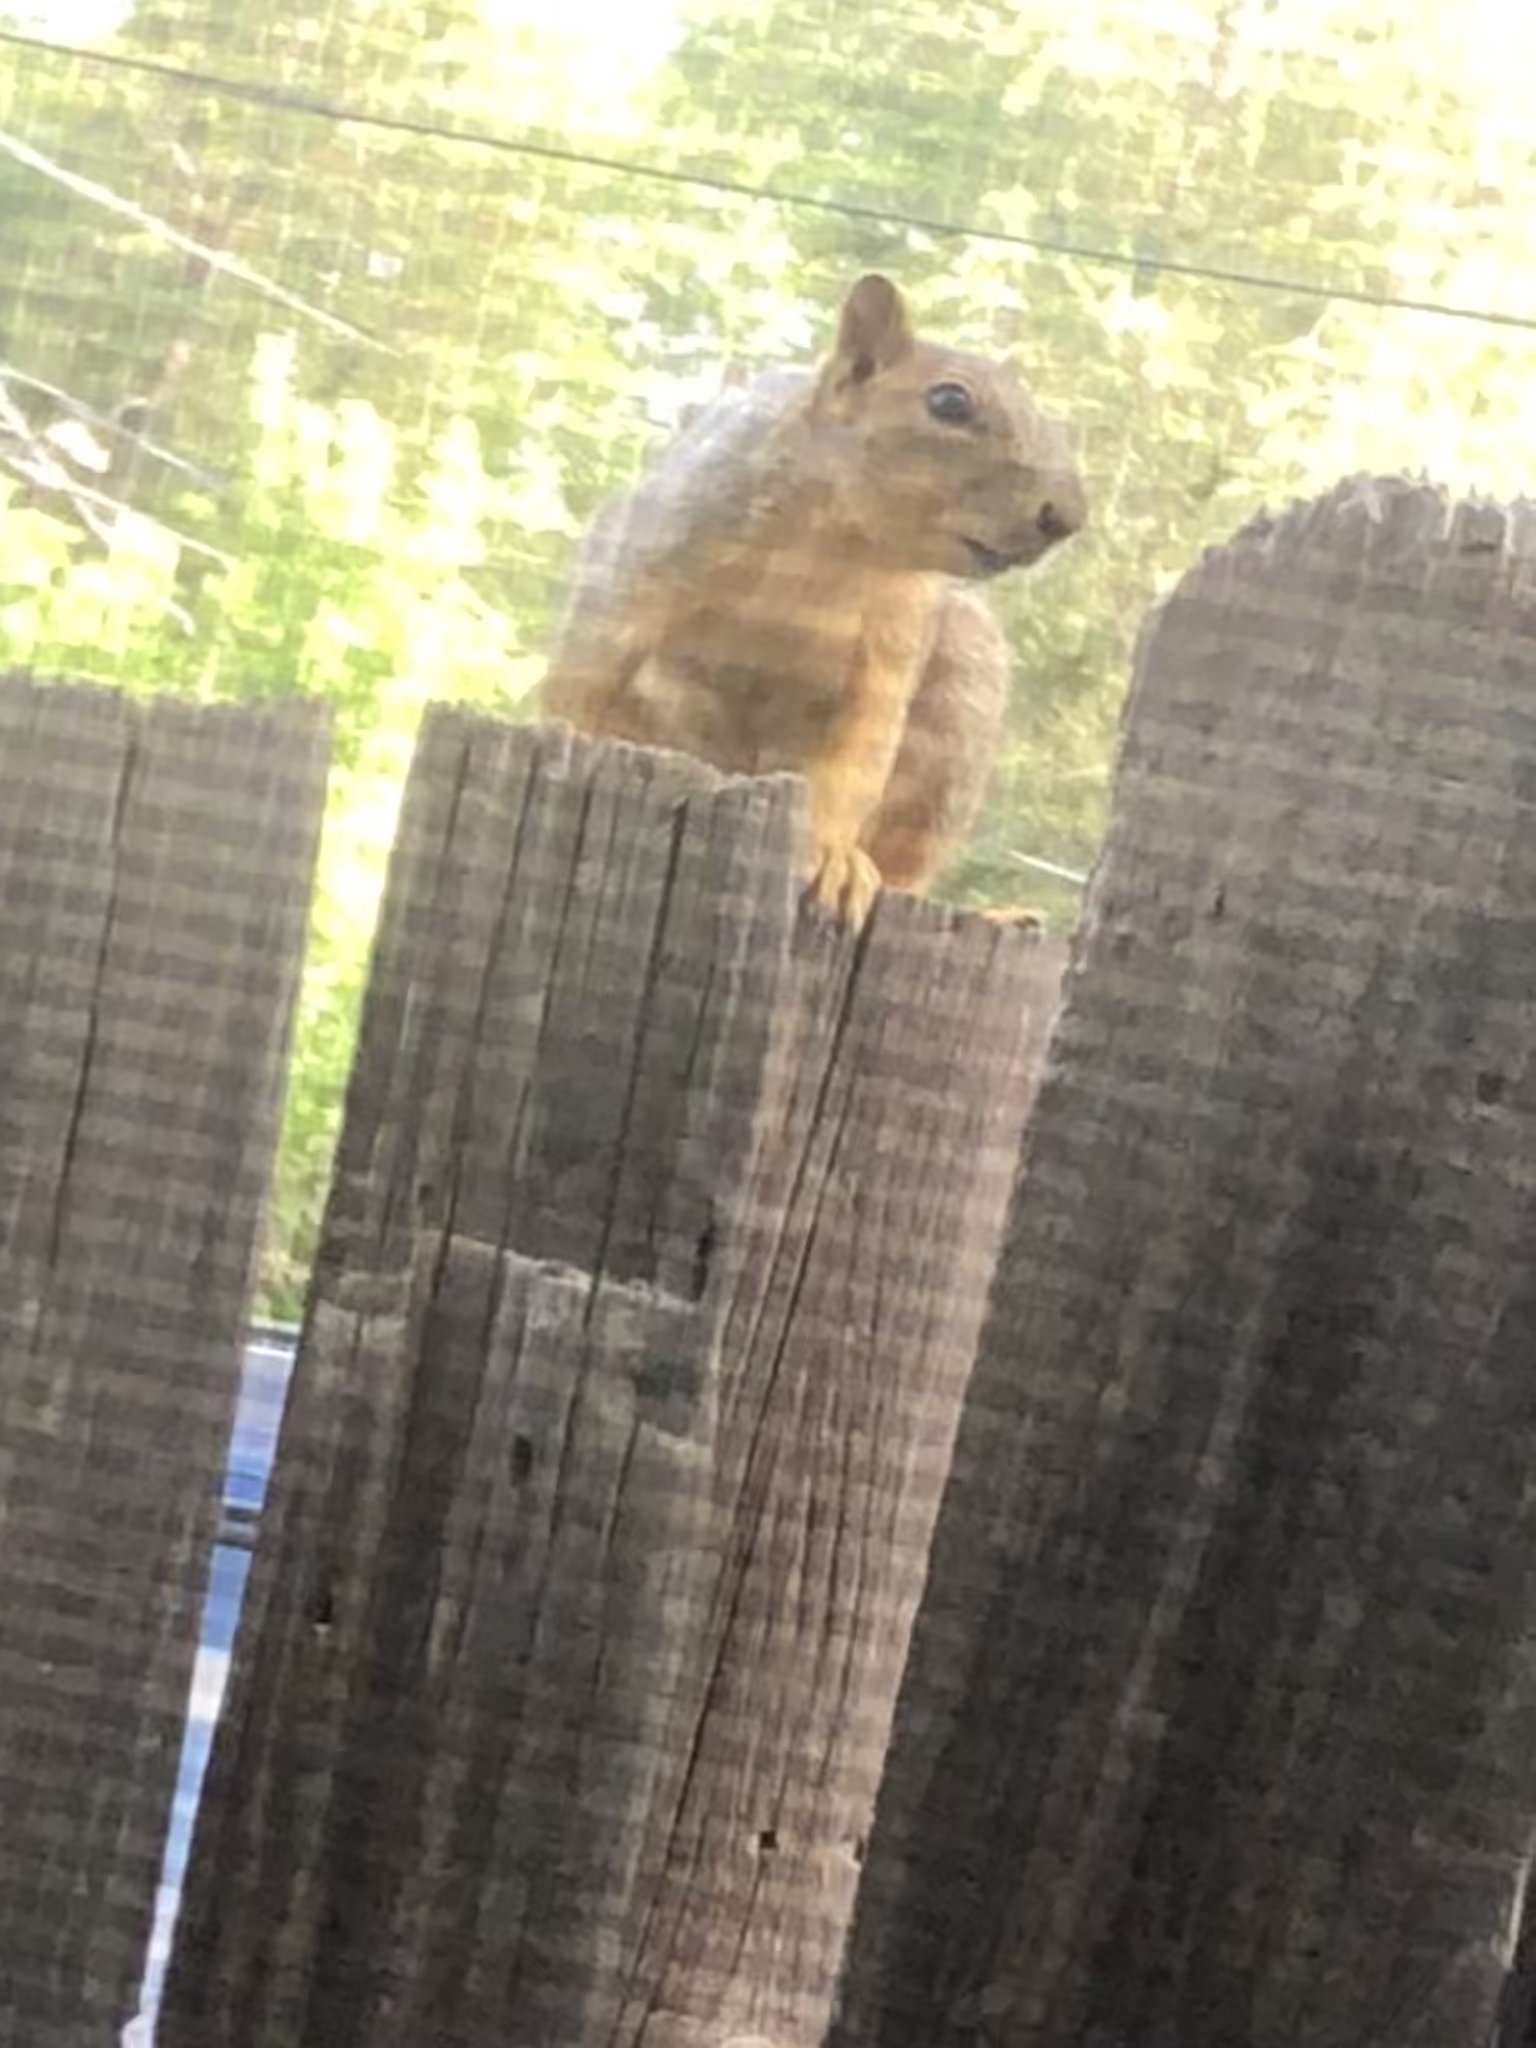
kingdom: Animalia
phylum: Chordata
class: Mammalia
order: Rodentia
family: Sciuridae
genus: Sciurus
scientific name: Sciurus niger
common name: Fox squirrel
